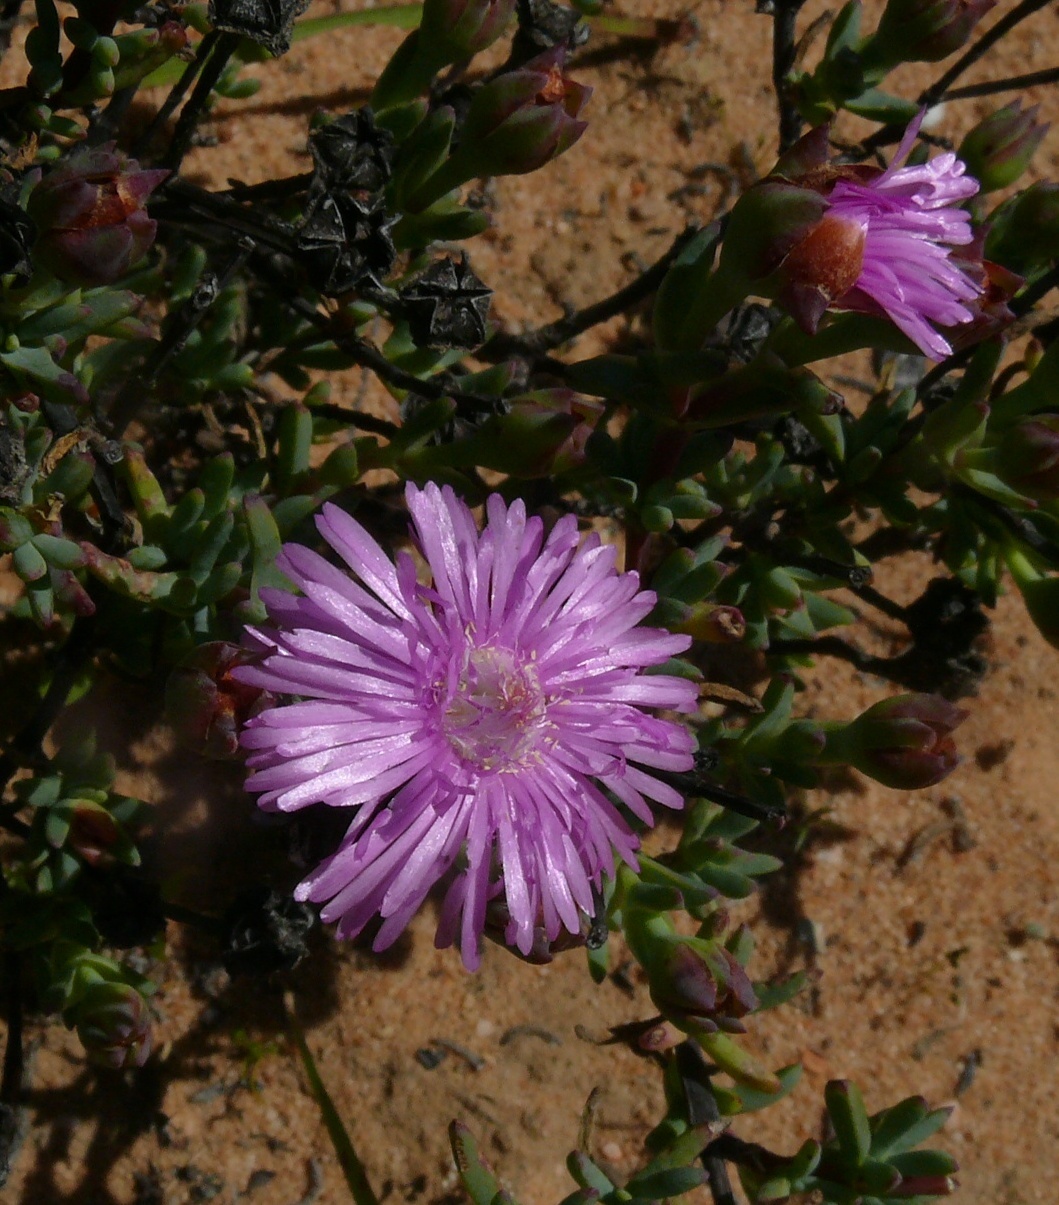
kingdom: Plantae
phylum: Tracheophyta
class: Magnoliopsida
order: Caryophyllales
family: Aizoaceae
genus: Lampranthus
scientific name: Lampranthus leightoniae
